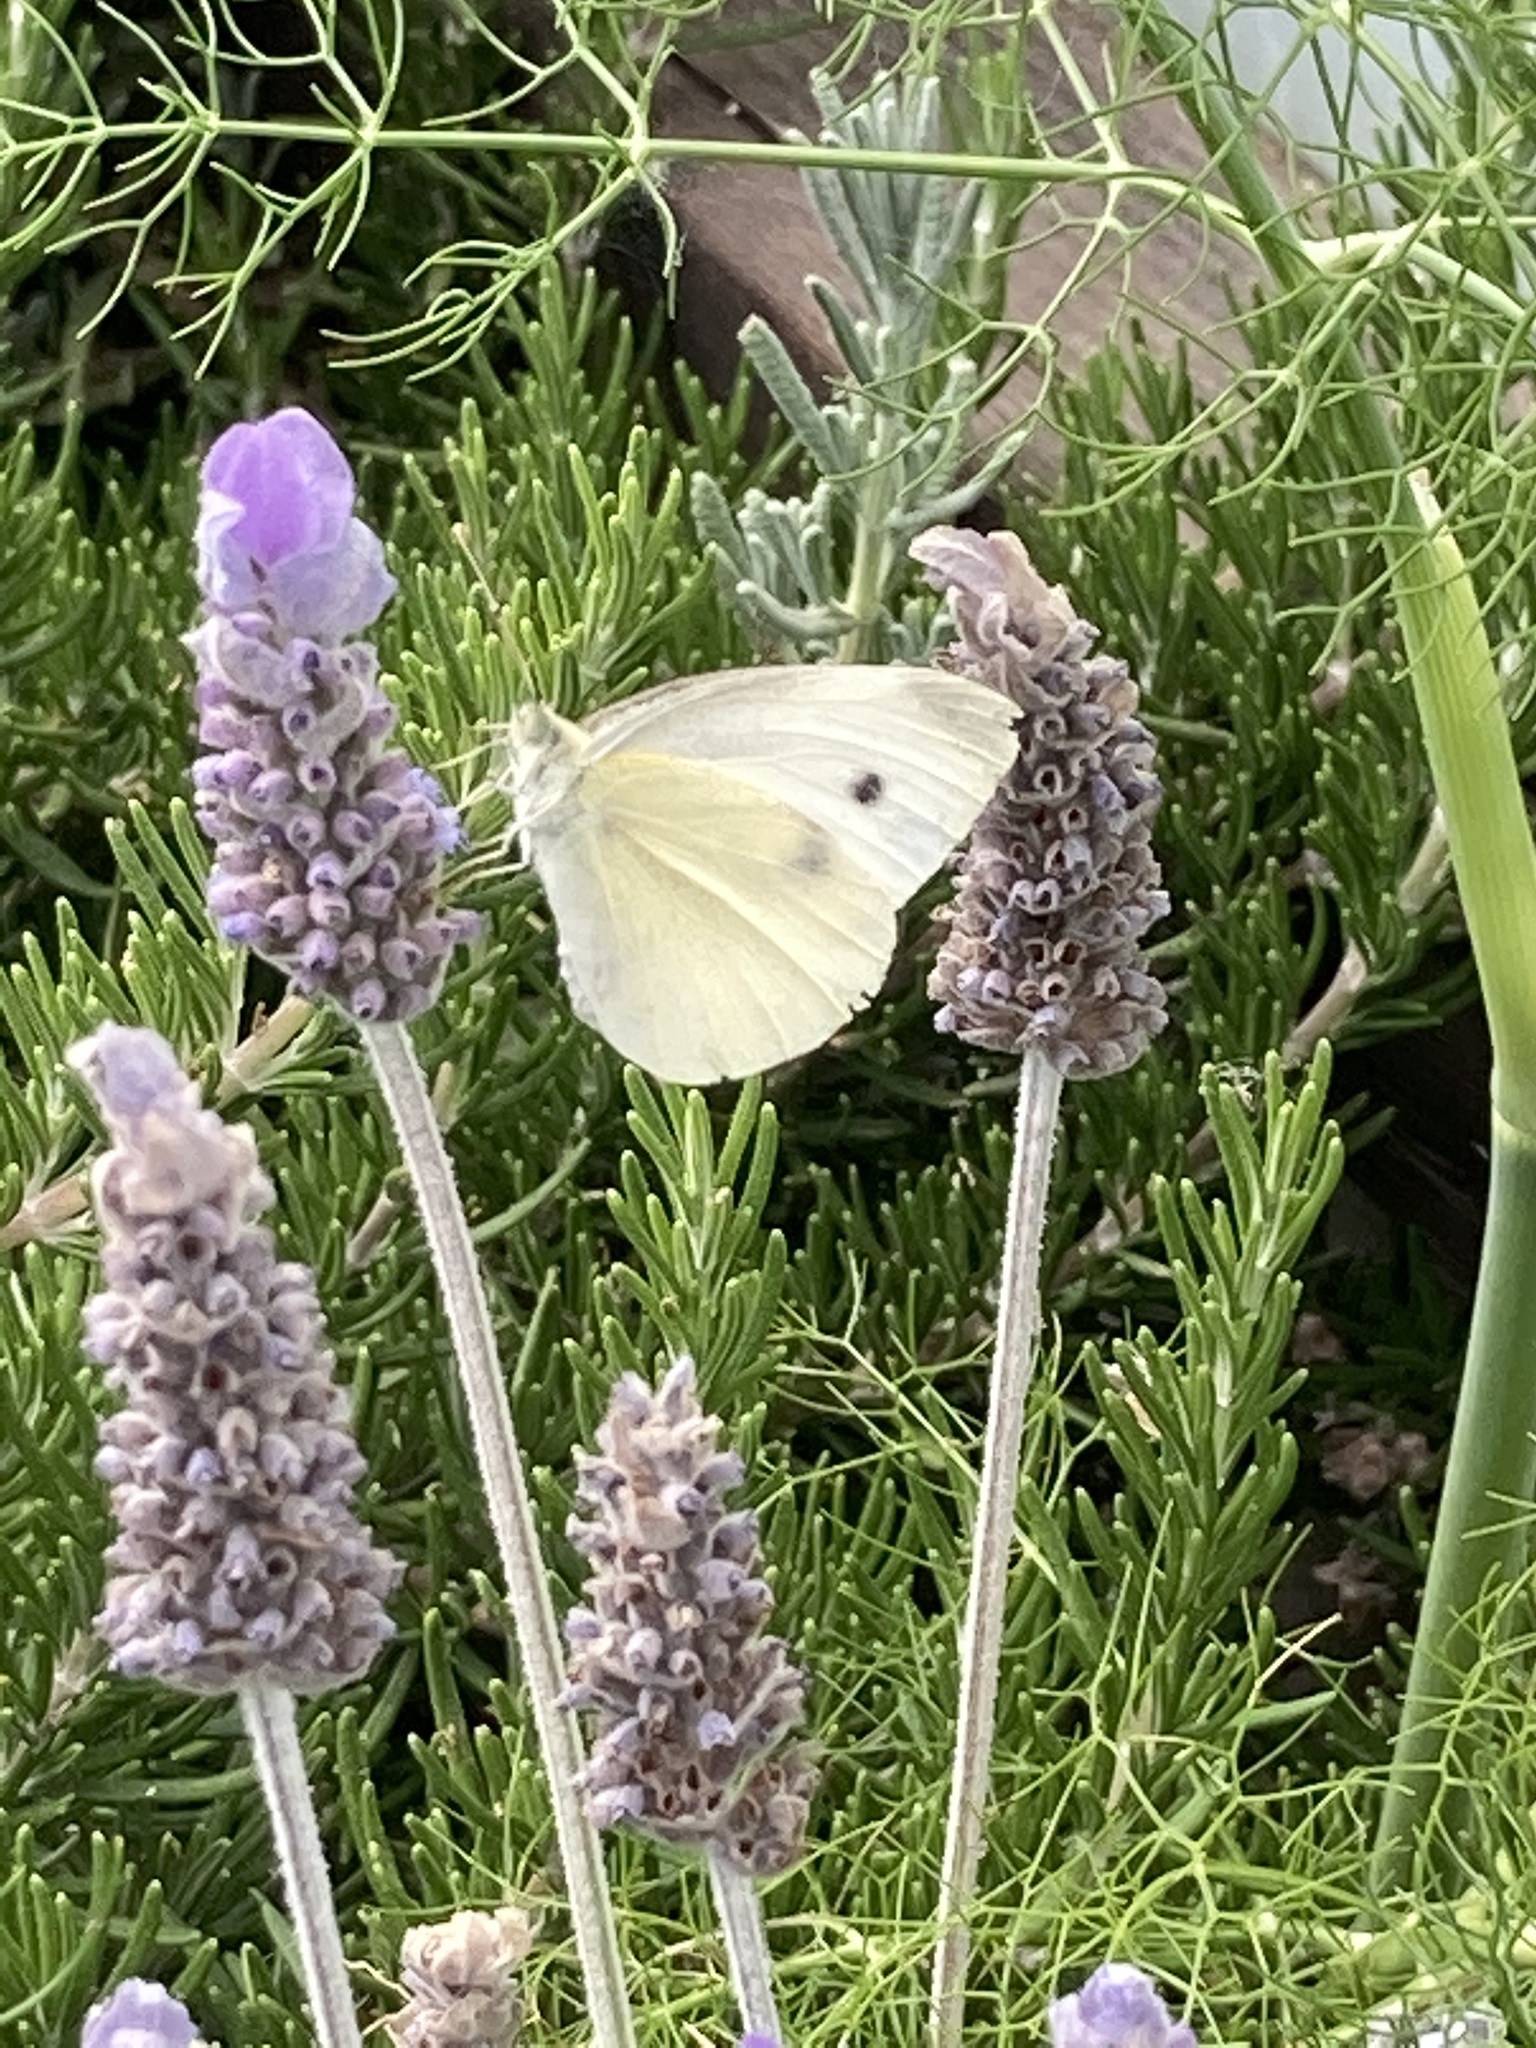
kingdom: Animalia
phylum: Arthropoda
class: Insecta
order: Lepidoptera
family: Pieridae
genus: Pieris
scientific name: Pieris rapae
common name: Small white
